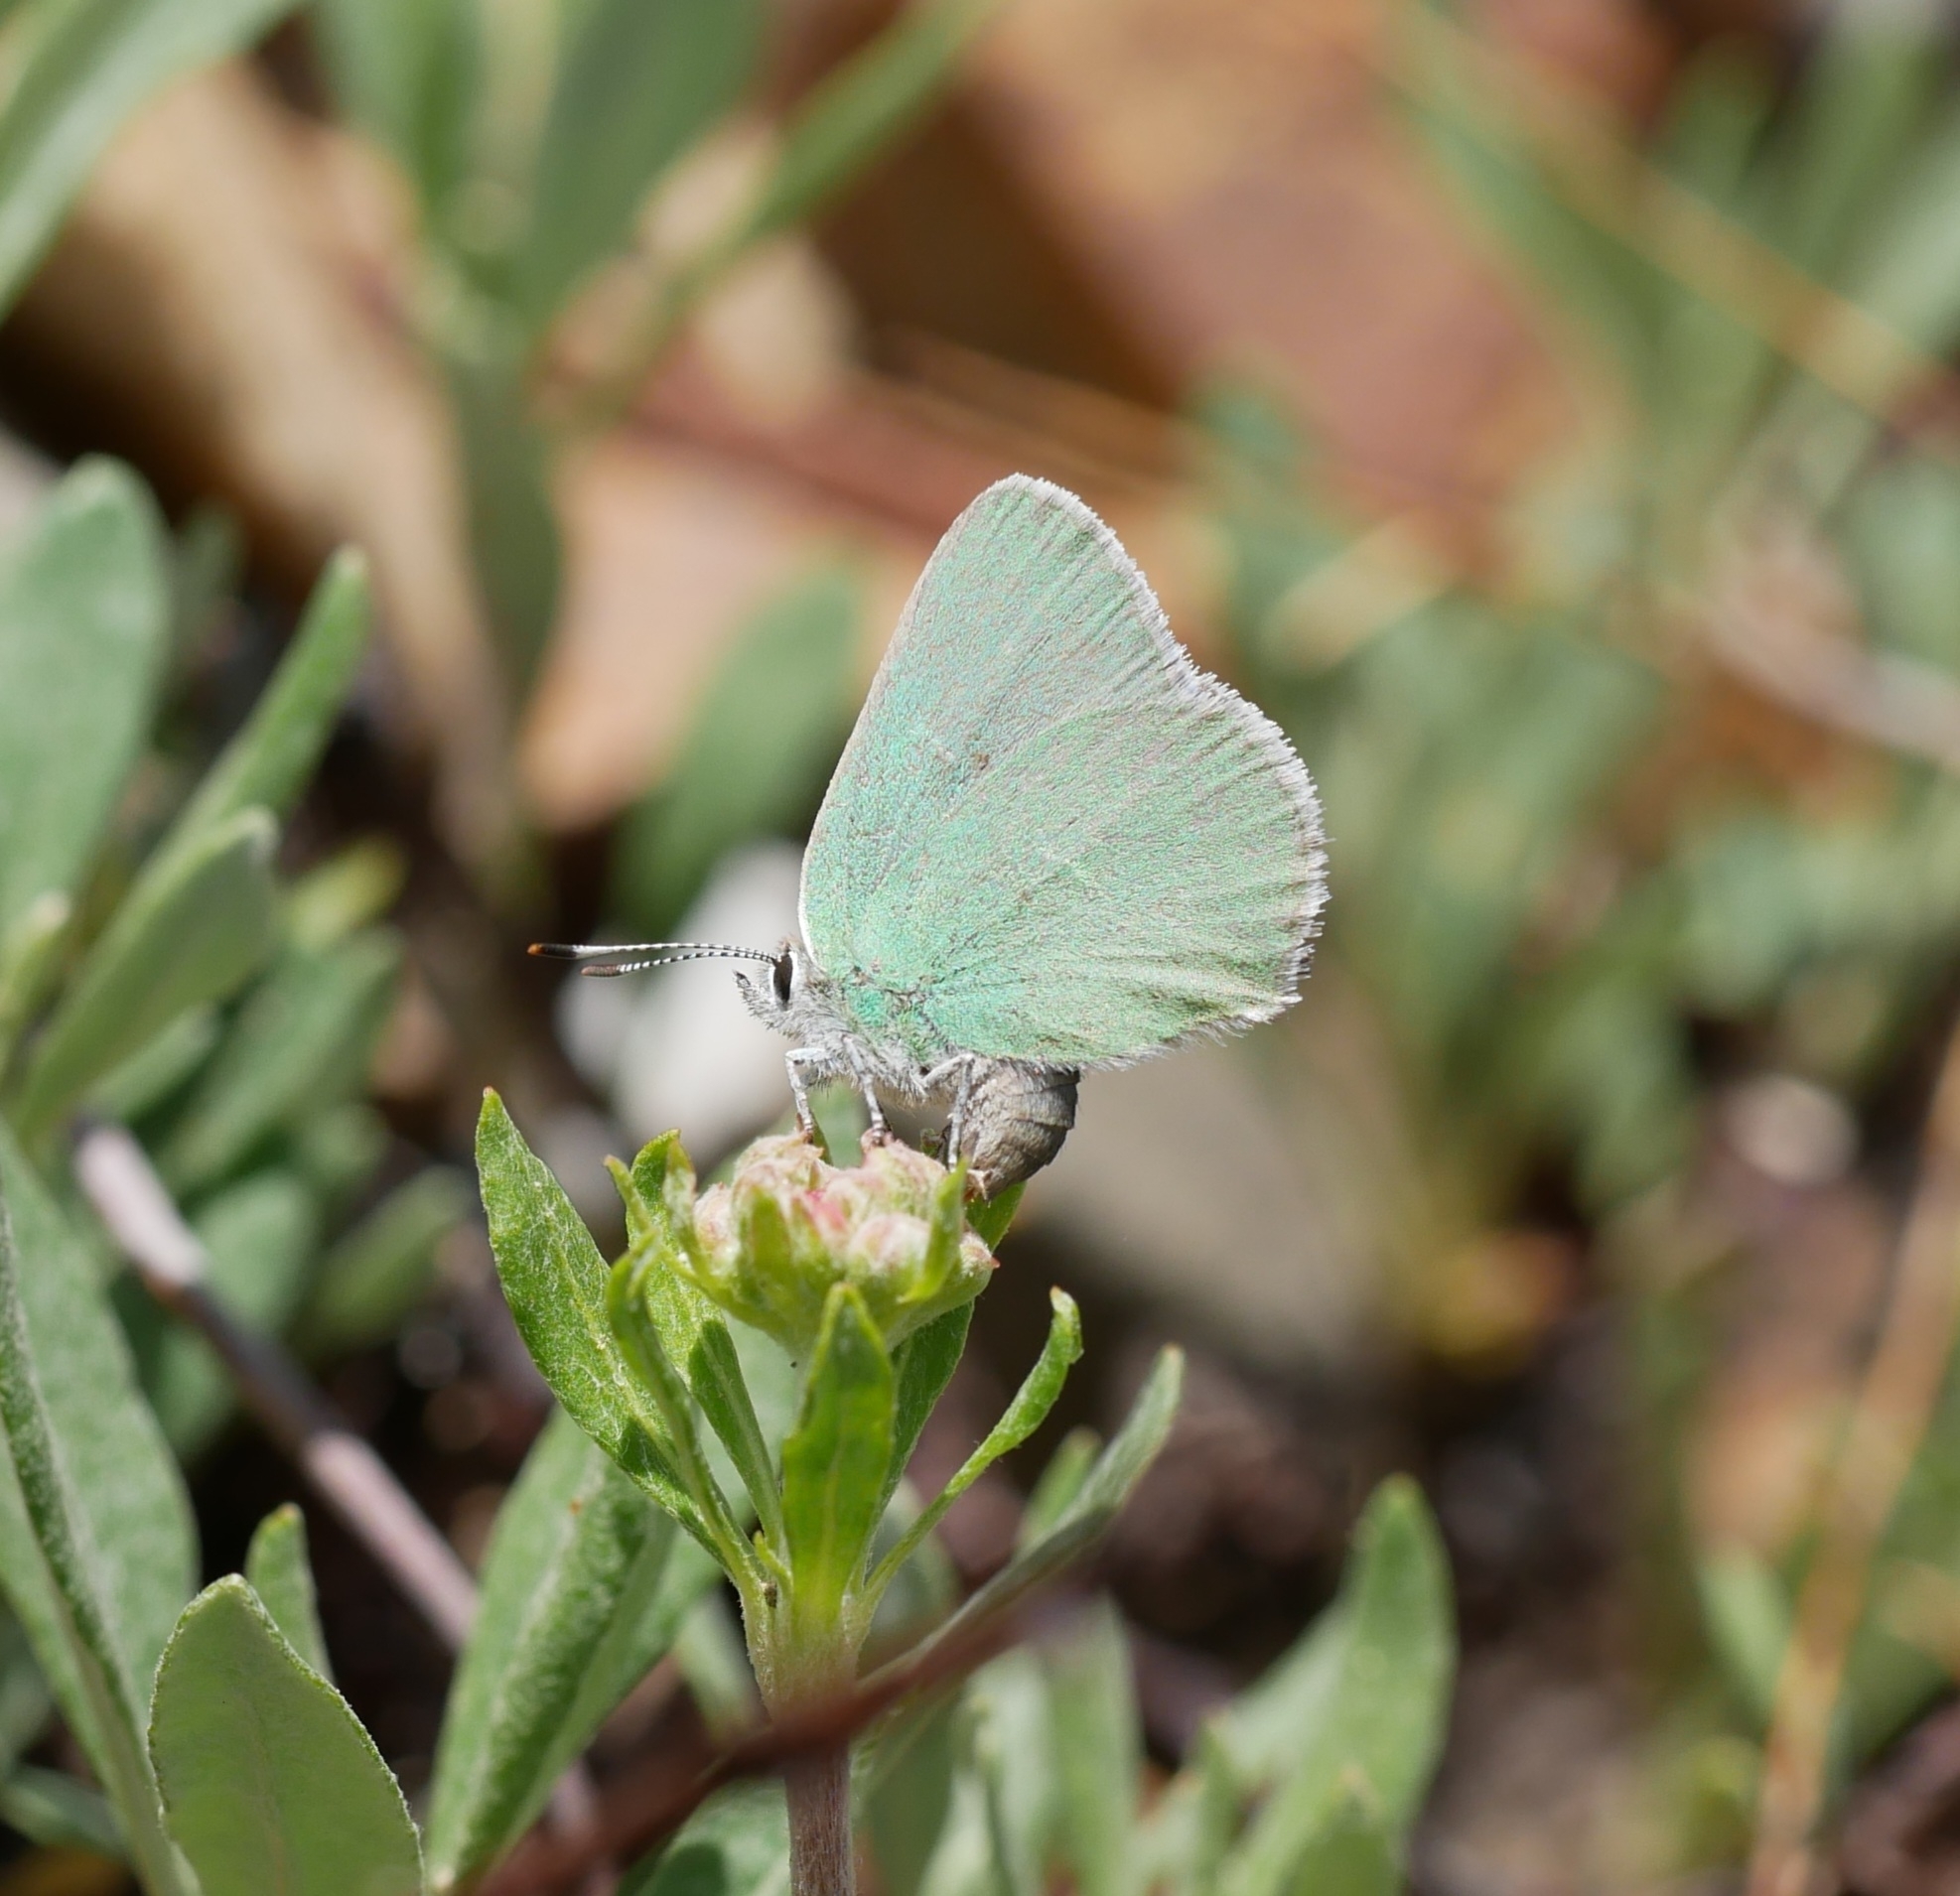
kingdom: Animalia
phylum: Arthropoda
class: Insecta
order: Lepidoptera
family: Lycaenidae
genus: Callophrys
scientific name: Callophrys affinis
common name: Western green hairstreak
